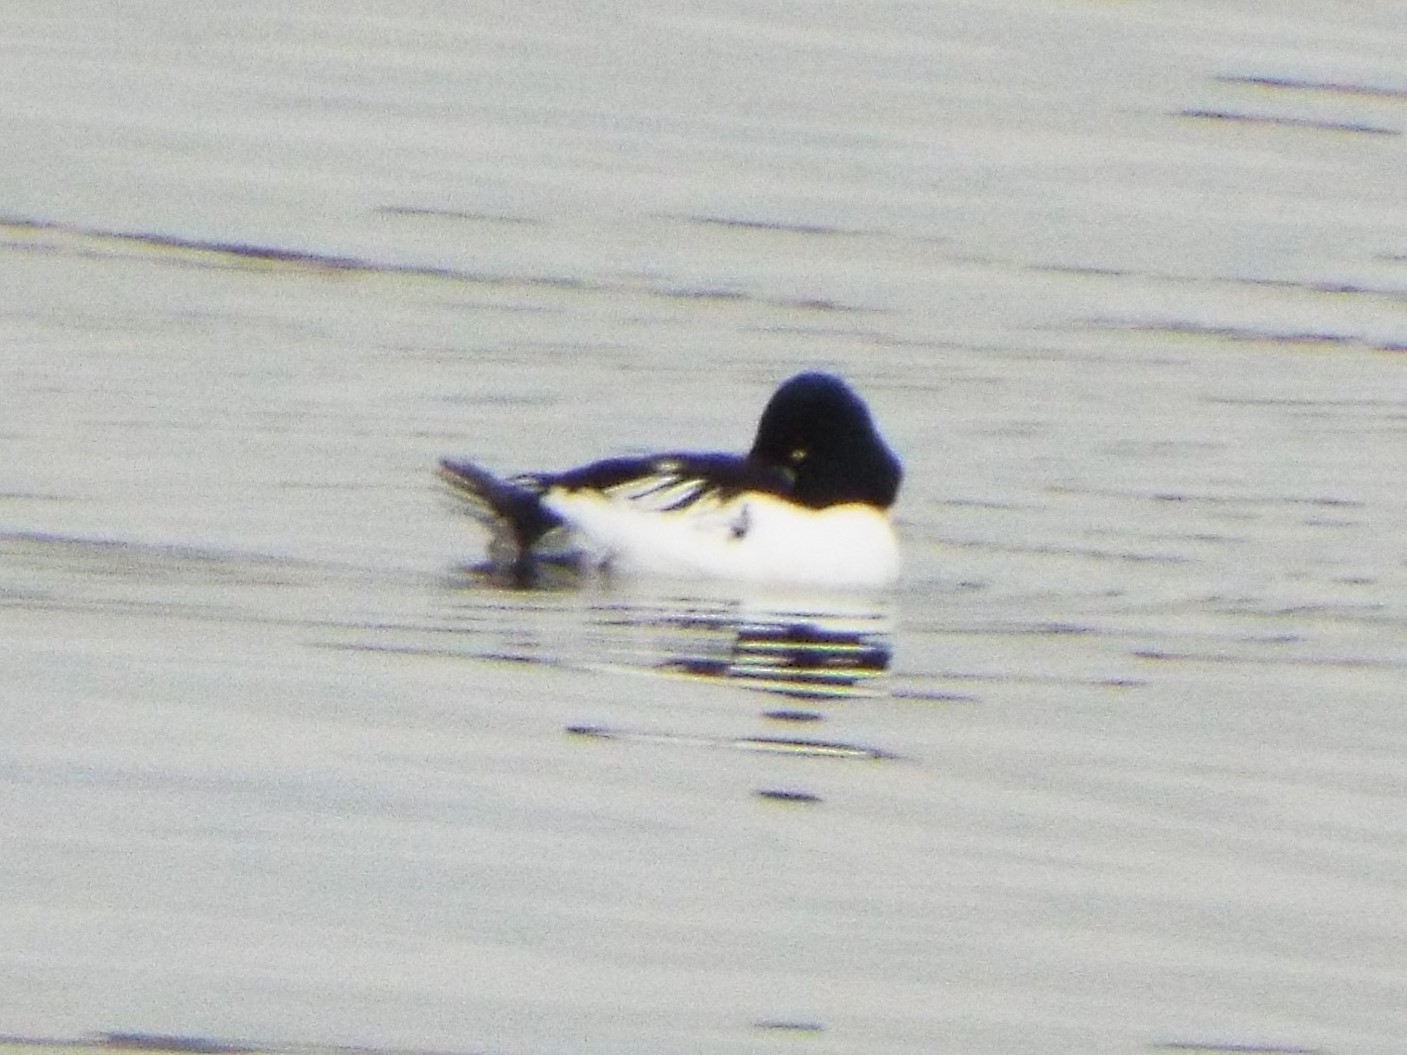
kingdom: Animalia
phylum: Chordata
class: Aves
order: Anseriformes
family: Anatidae
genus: Bucephala
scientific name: Bucephala clangula
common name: Common goldeneye
